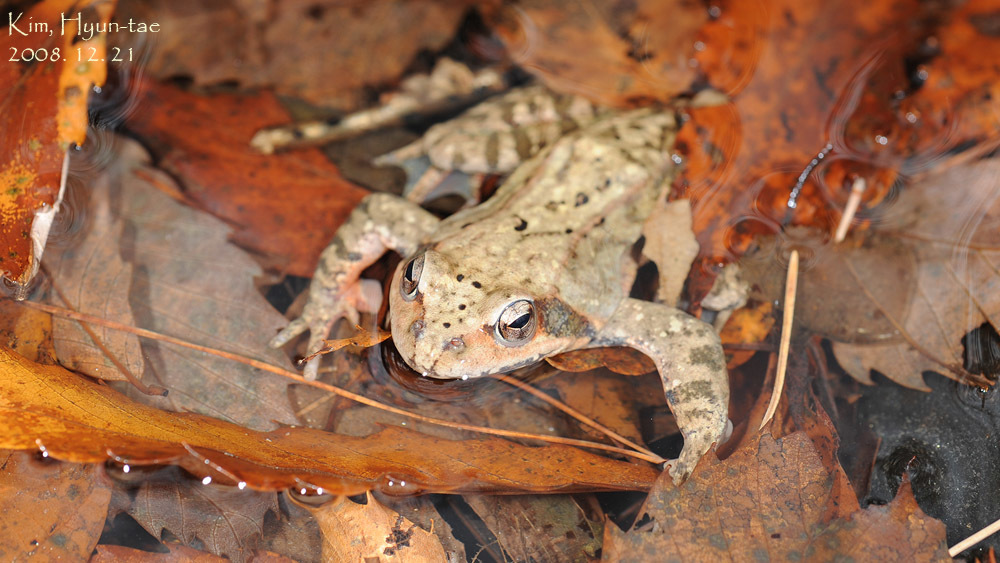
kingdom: Animalia
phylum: Chordata
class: Amphibia
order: Anura
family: Ranidae
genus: Rana
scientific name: Rana dybowskii
